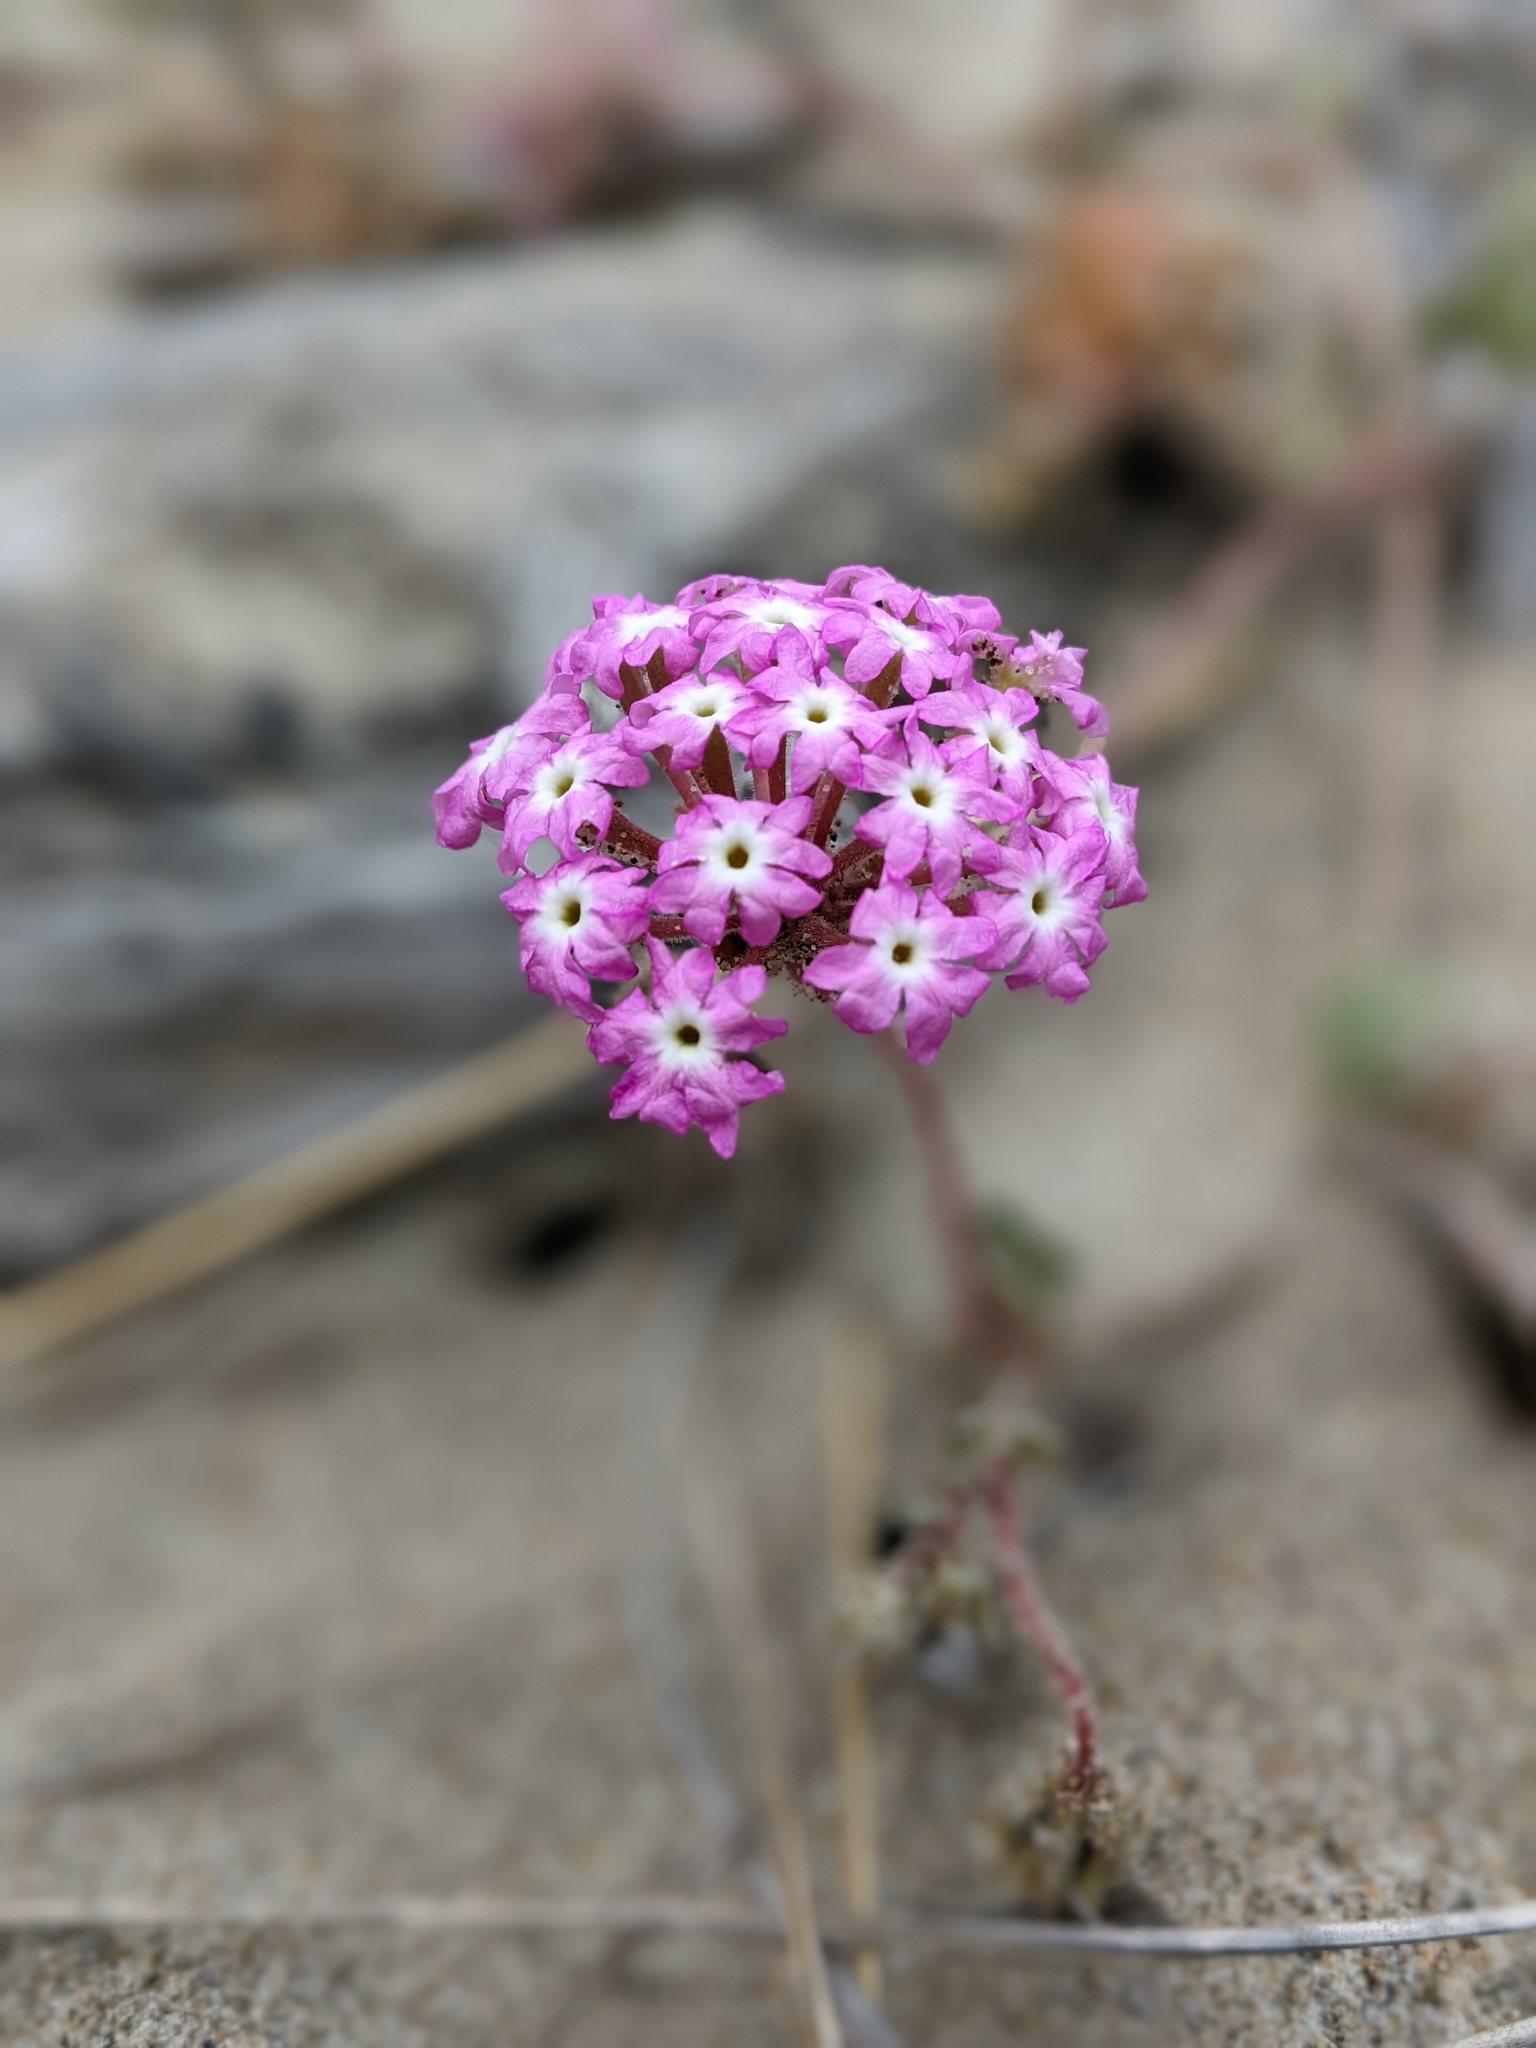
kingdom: Plantae
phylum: Tracheophyta
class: Magnoliopsida
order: Caryophyllales
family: Nyctaginaceae
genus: Abronia
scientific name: Abronia umbellata
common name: Sand-verbena
